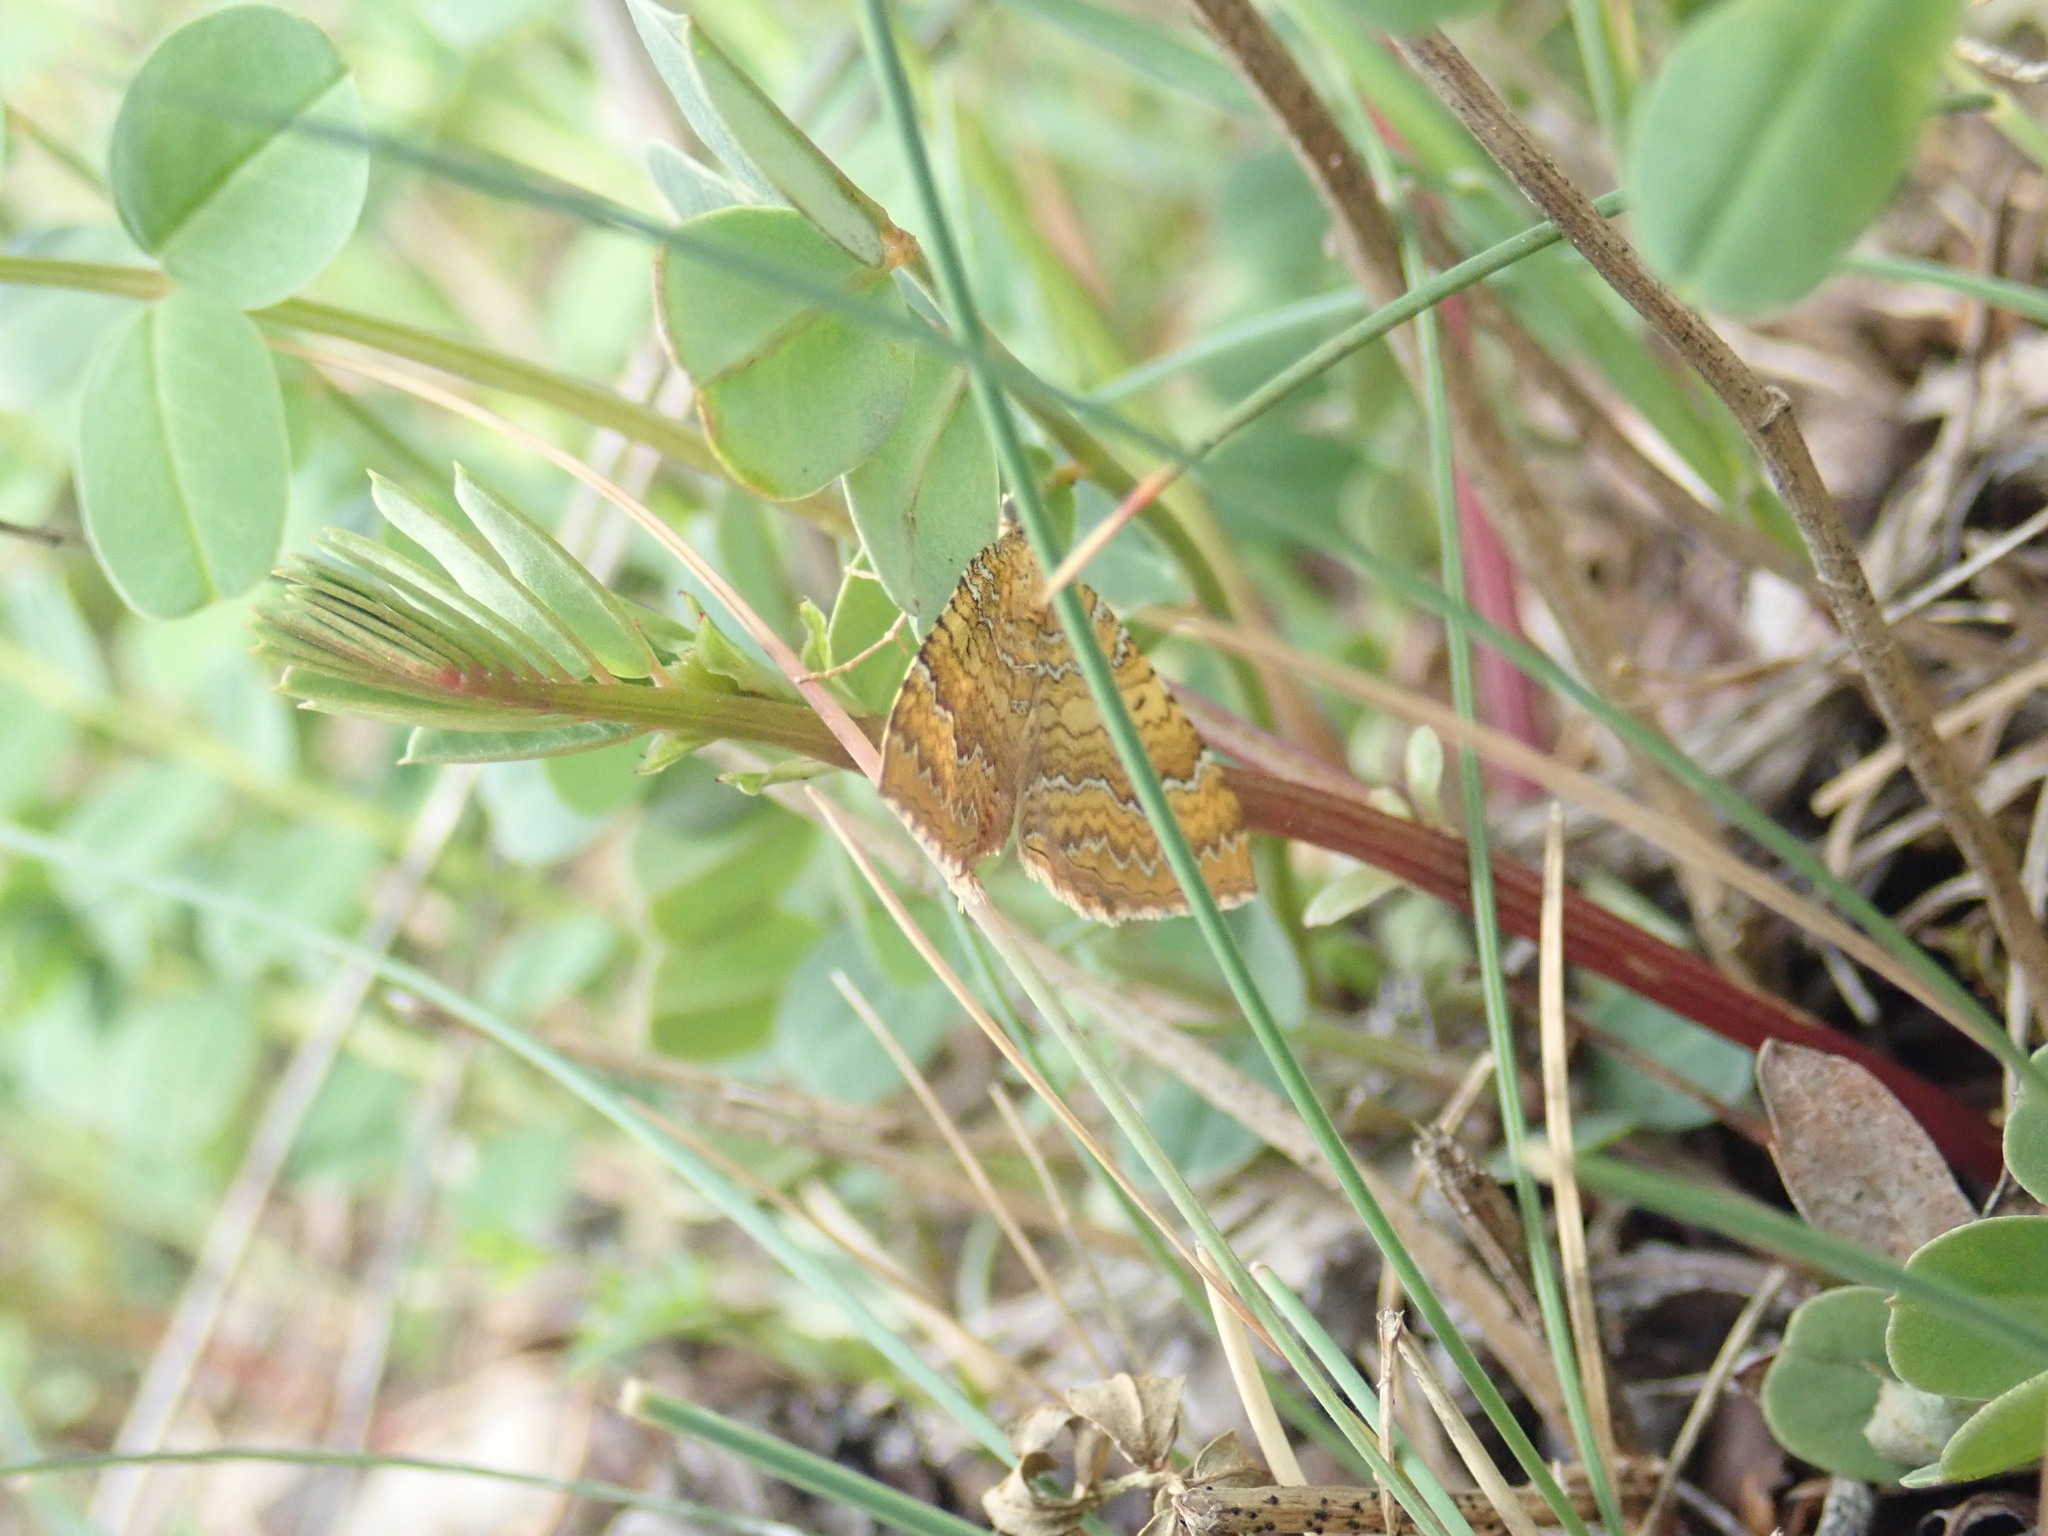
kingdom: Animalia
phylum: Arthropoda
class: Insecta
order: Lepidoptera
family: Geometridae
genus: Camptogramma
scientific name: Camptogramma bilineata
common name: Yellow shell
